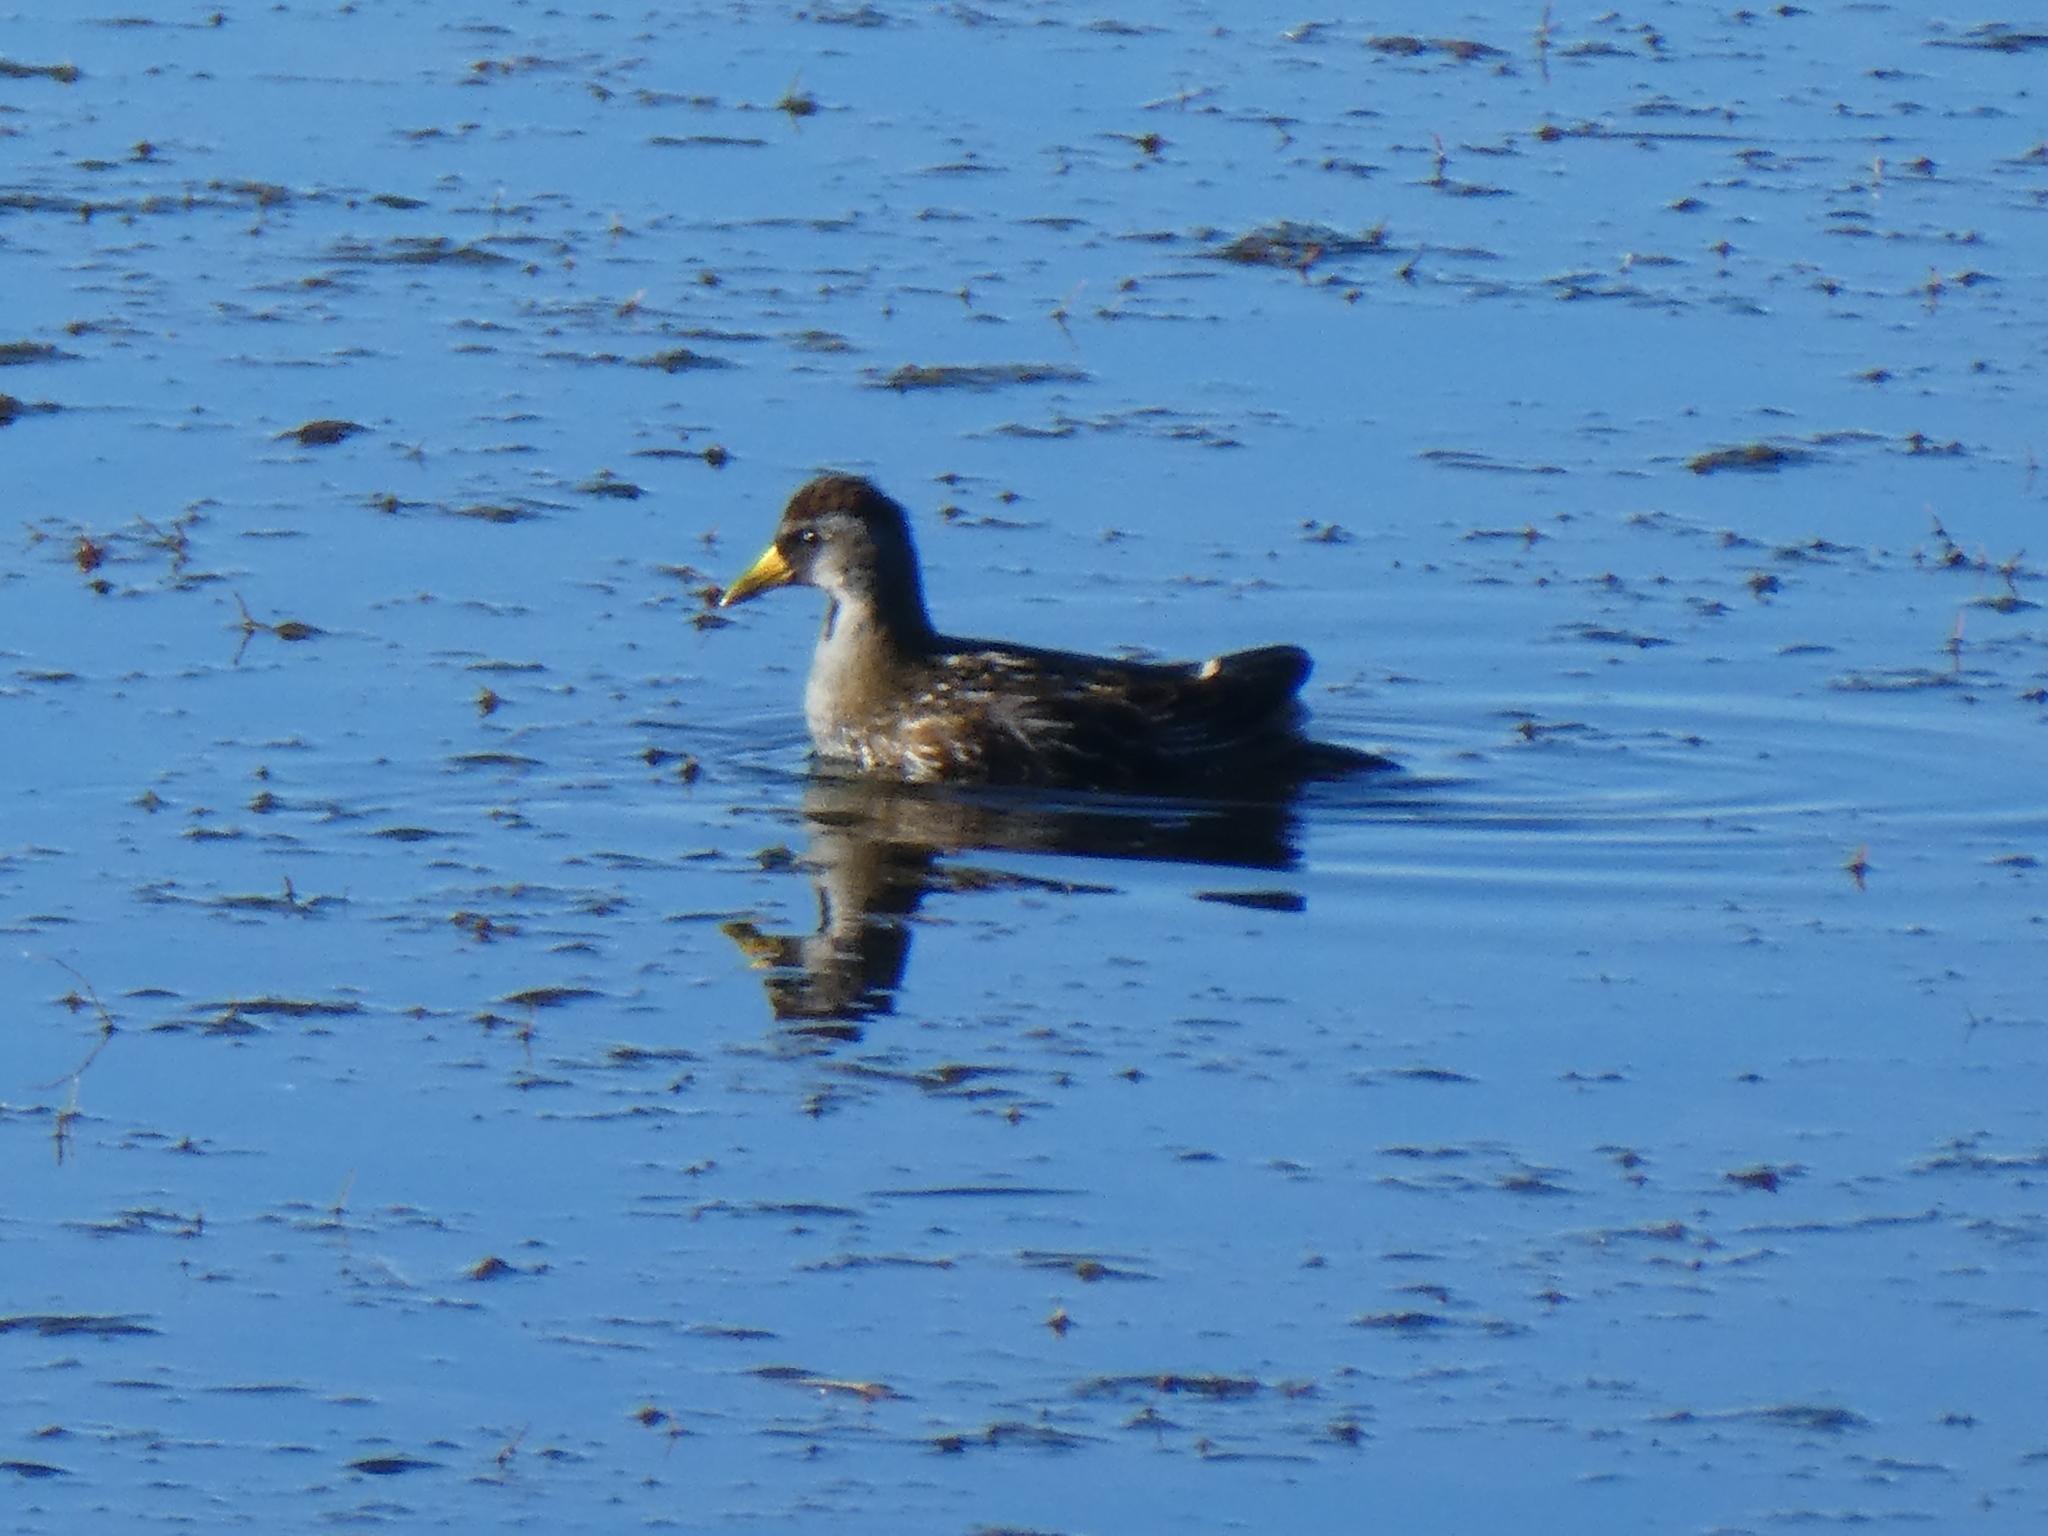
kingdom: Animalia
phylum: Chordata
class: Aves
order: Gruiformes
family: Rallidae
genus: Porzana
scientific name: Porzana carolina
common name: Sora
